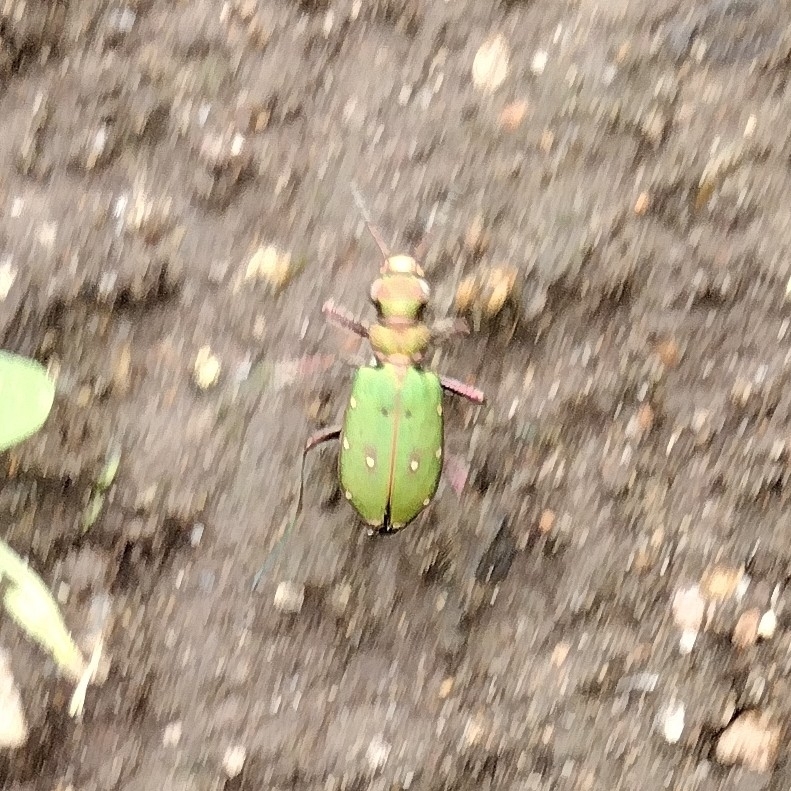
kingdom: Animalia
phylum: Arthropoda
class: Insecta
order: Coleoptera
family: Carabidae
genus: Cicindela
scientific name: Cicindela campestris
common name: Common tiger beetle
